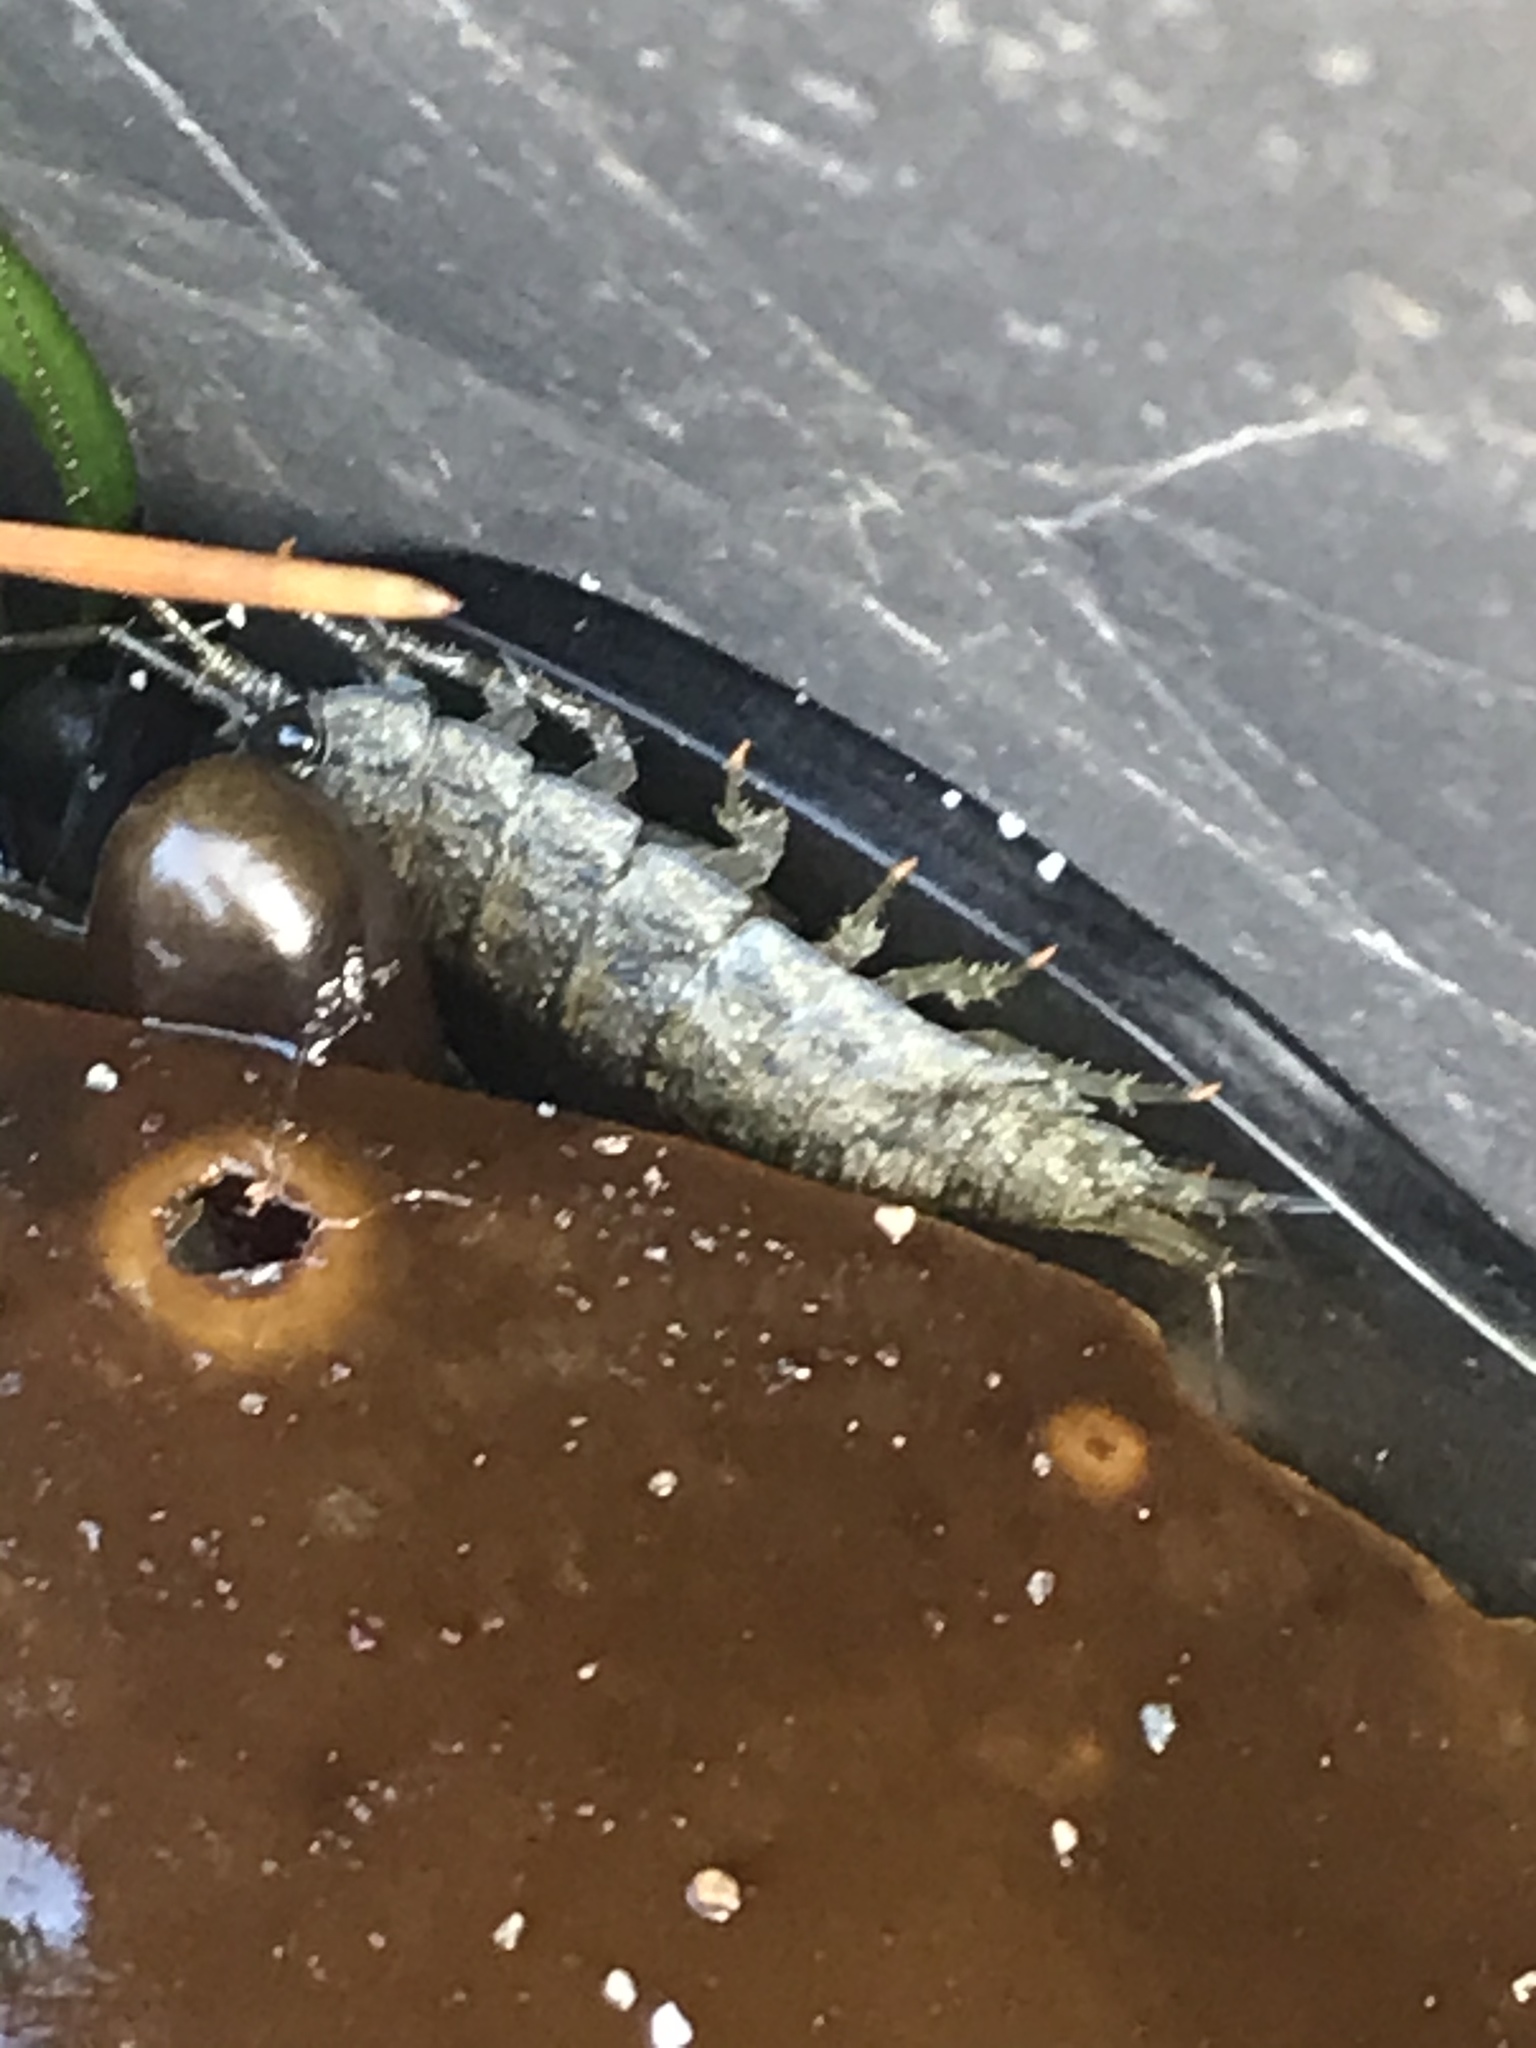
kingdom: Animalia
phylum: Arthropoda
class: Malacostraca
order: Isopoda
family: Ligiidae
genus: Ligia
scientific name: Ligia occidentalis
